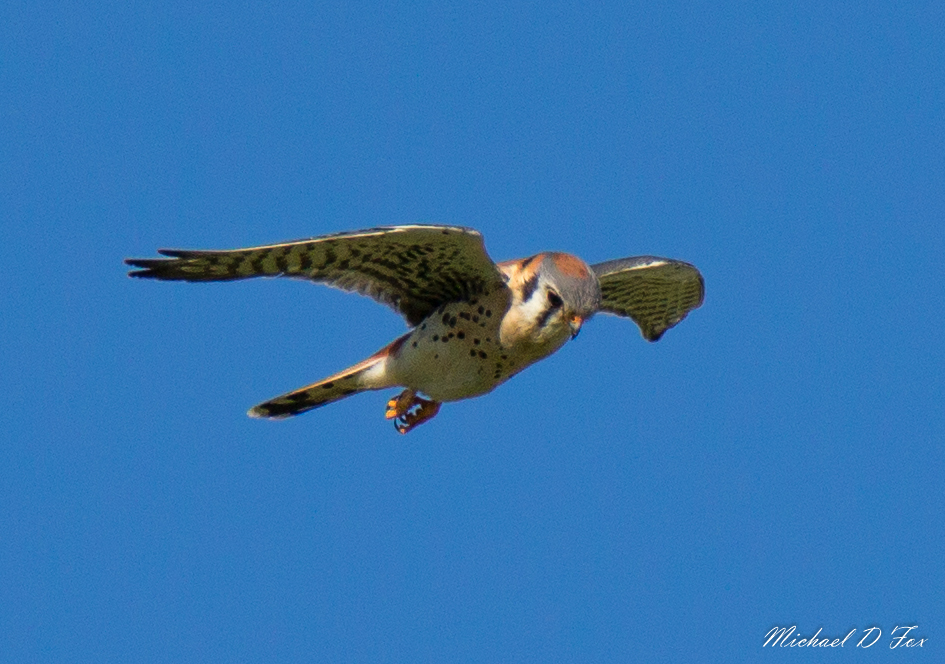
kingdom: Animalia
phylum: Chordata
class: Aves
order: Falconiformes
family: Falconidae
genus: Falco
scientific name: Falco sparverius
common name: American kestrel
